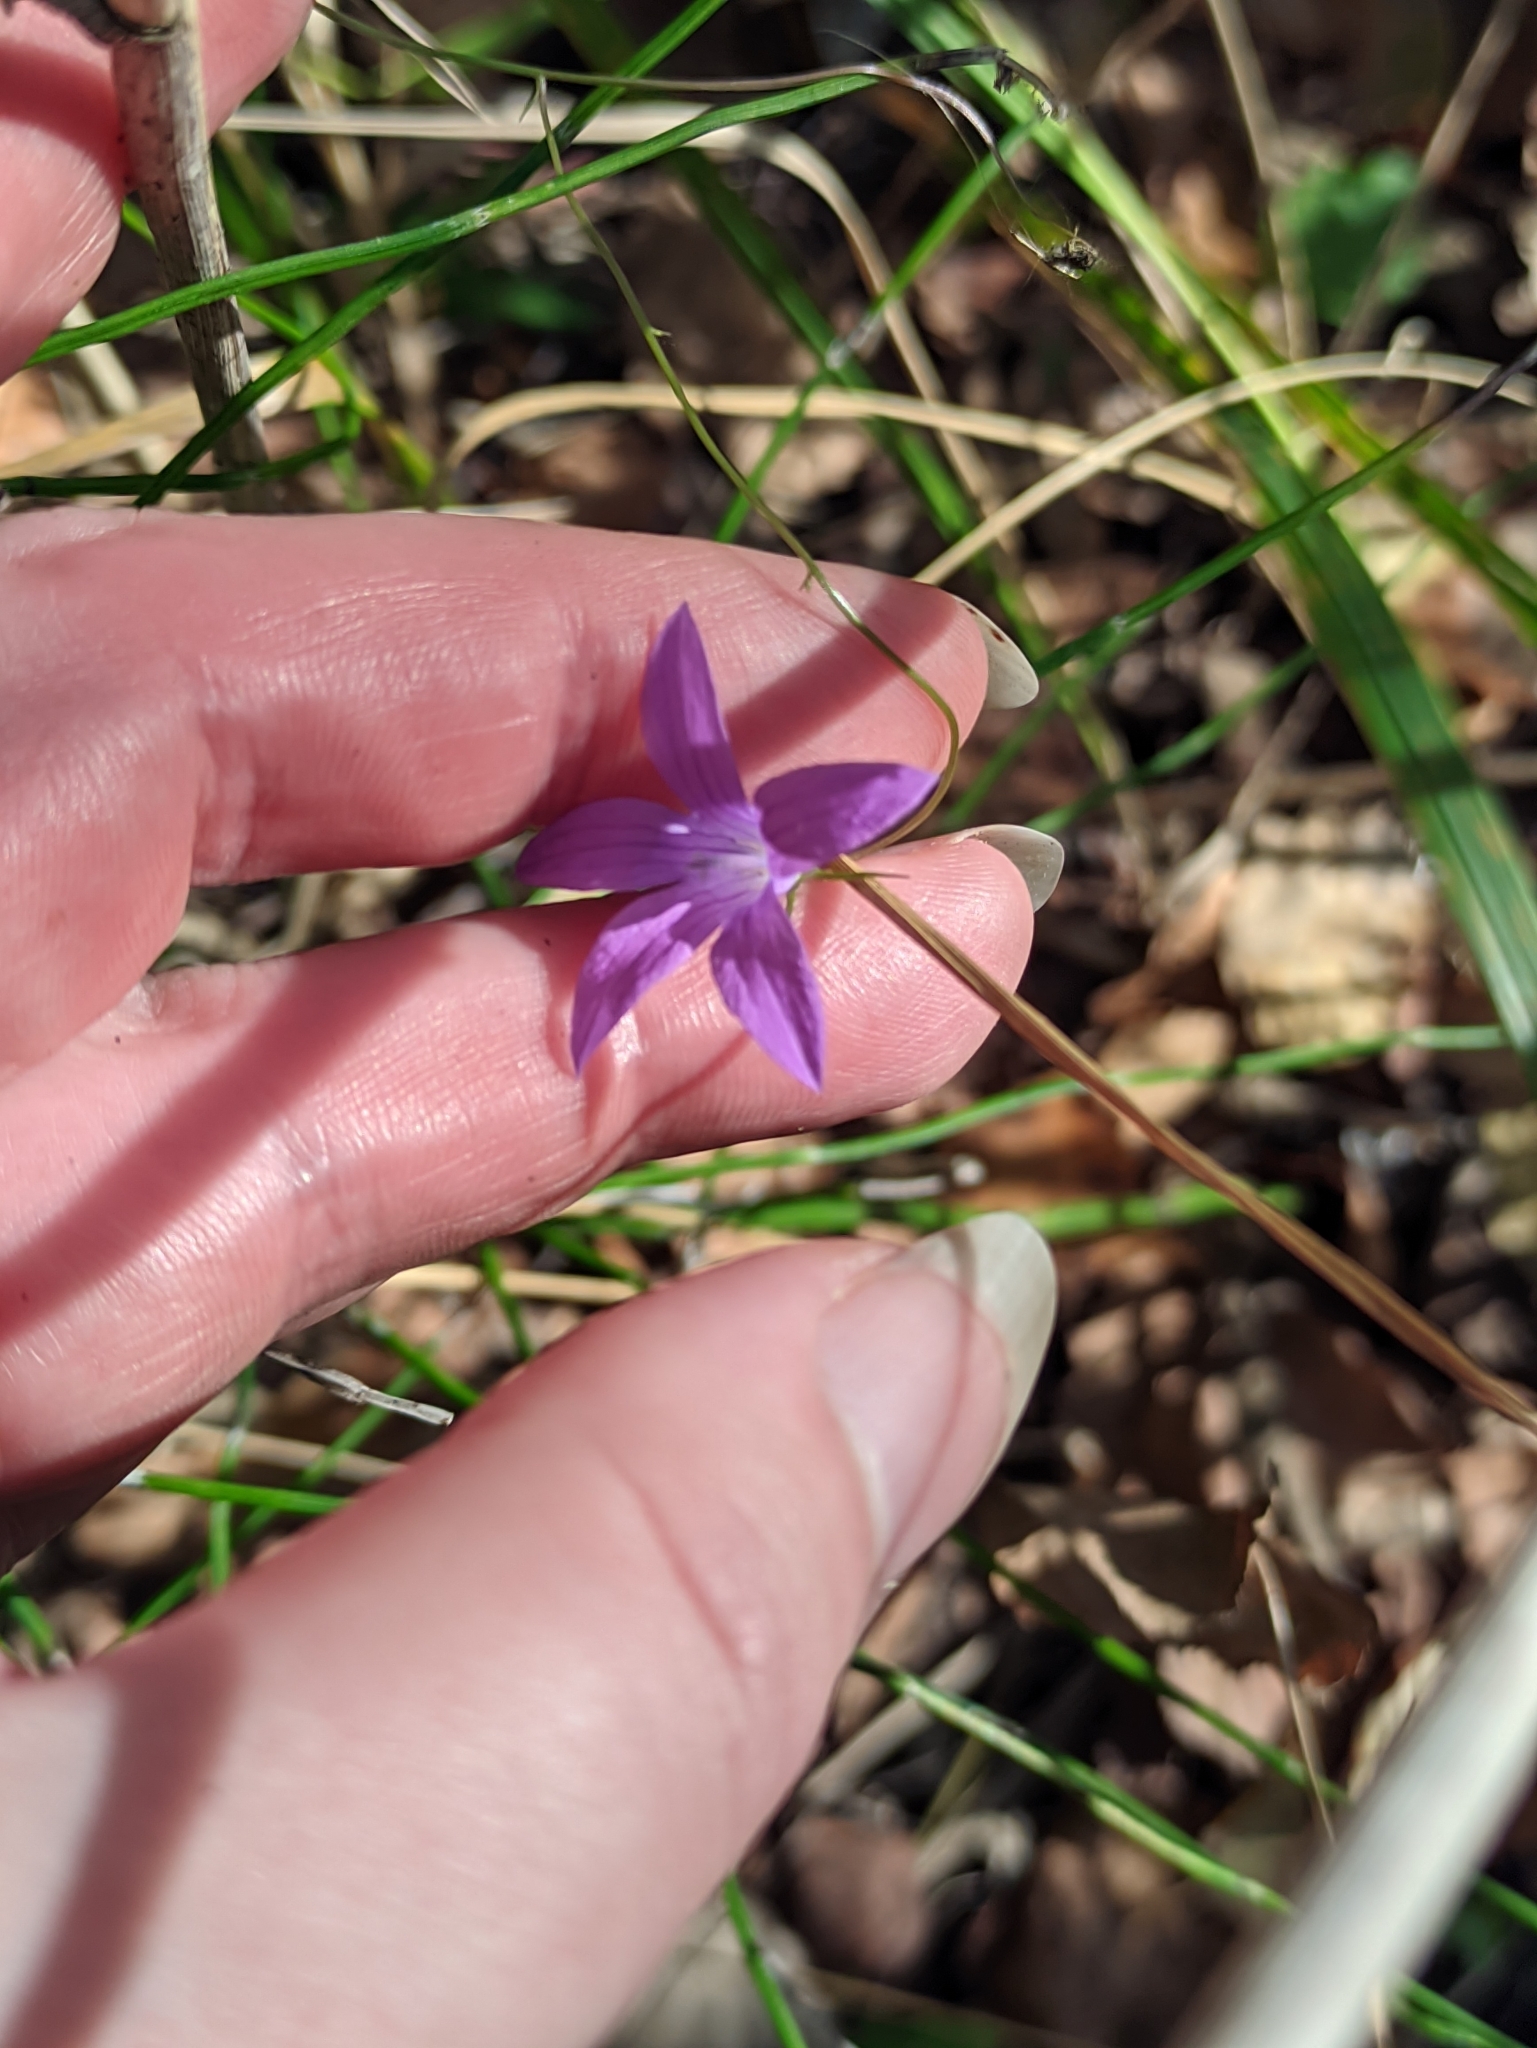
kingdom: Plantae
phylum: Tracheophyta
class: Magnoliopsida
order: Asterales
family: Campanulaceae
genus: Campanula
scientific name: Campanula patula
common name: Spreading bellflower
